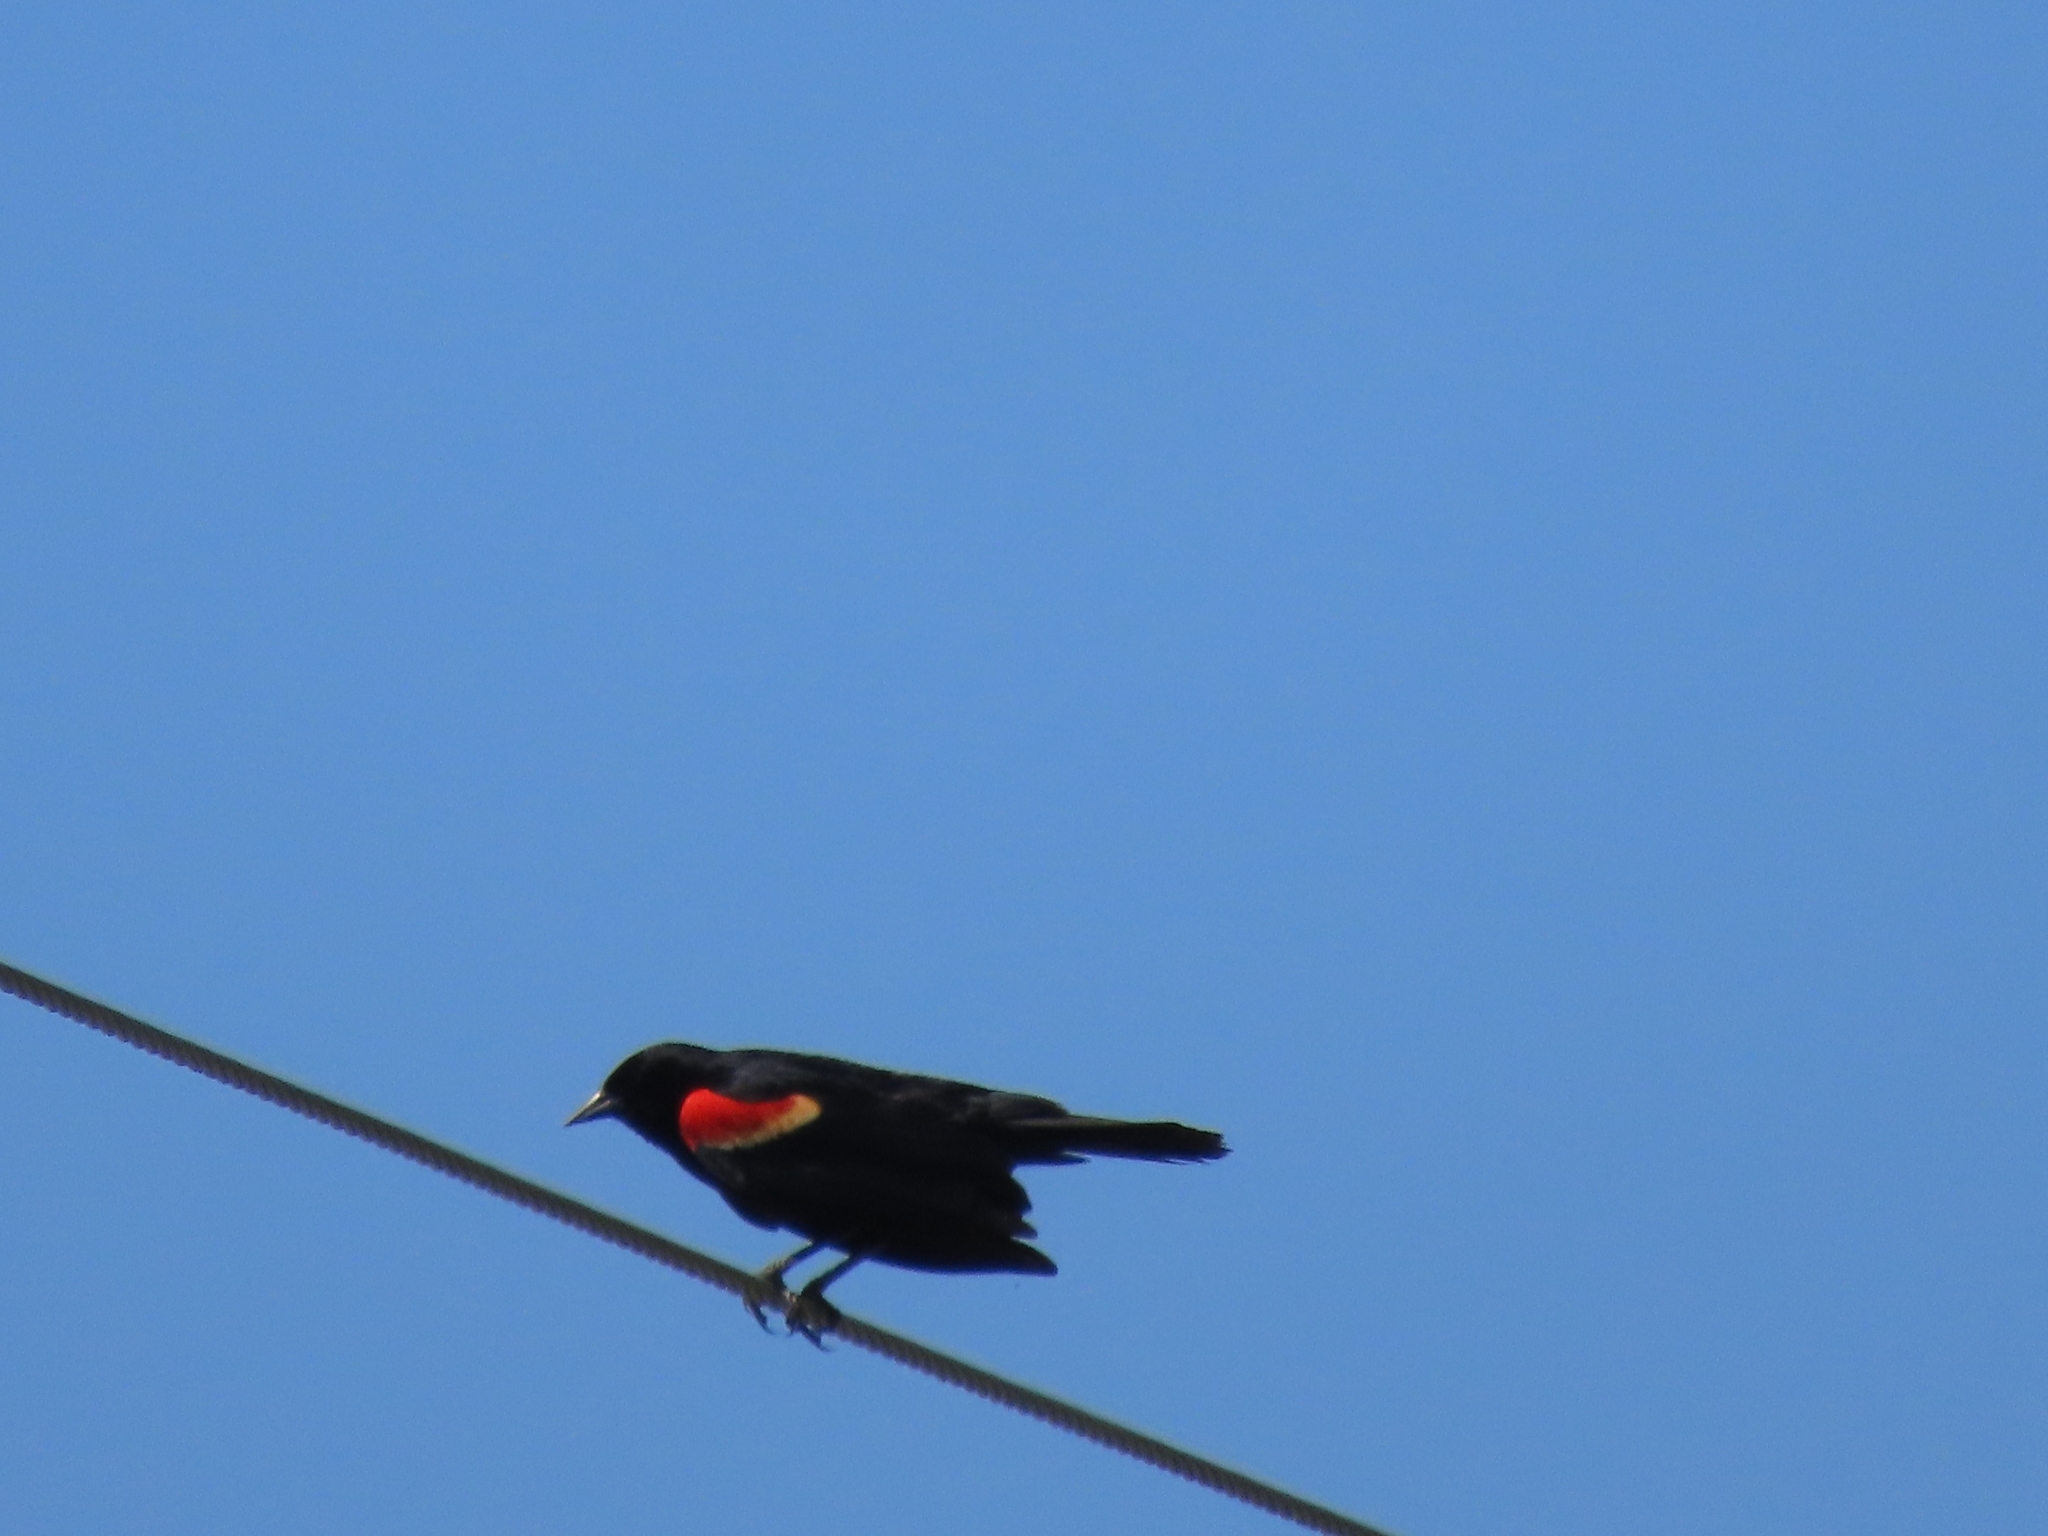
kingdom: Animalia
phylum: Chordata
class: Aves
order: Passeriformes
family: Icteridae
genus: Agelaius
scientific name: Agelaius phoeniceus
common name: Red-winged blackbird
